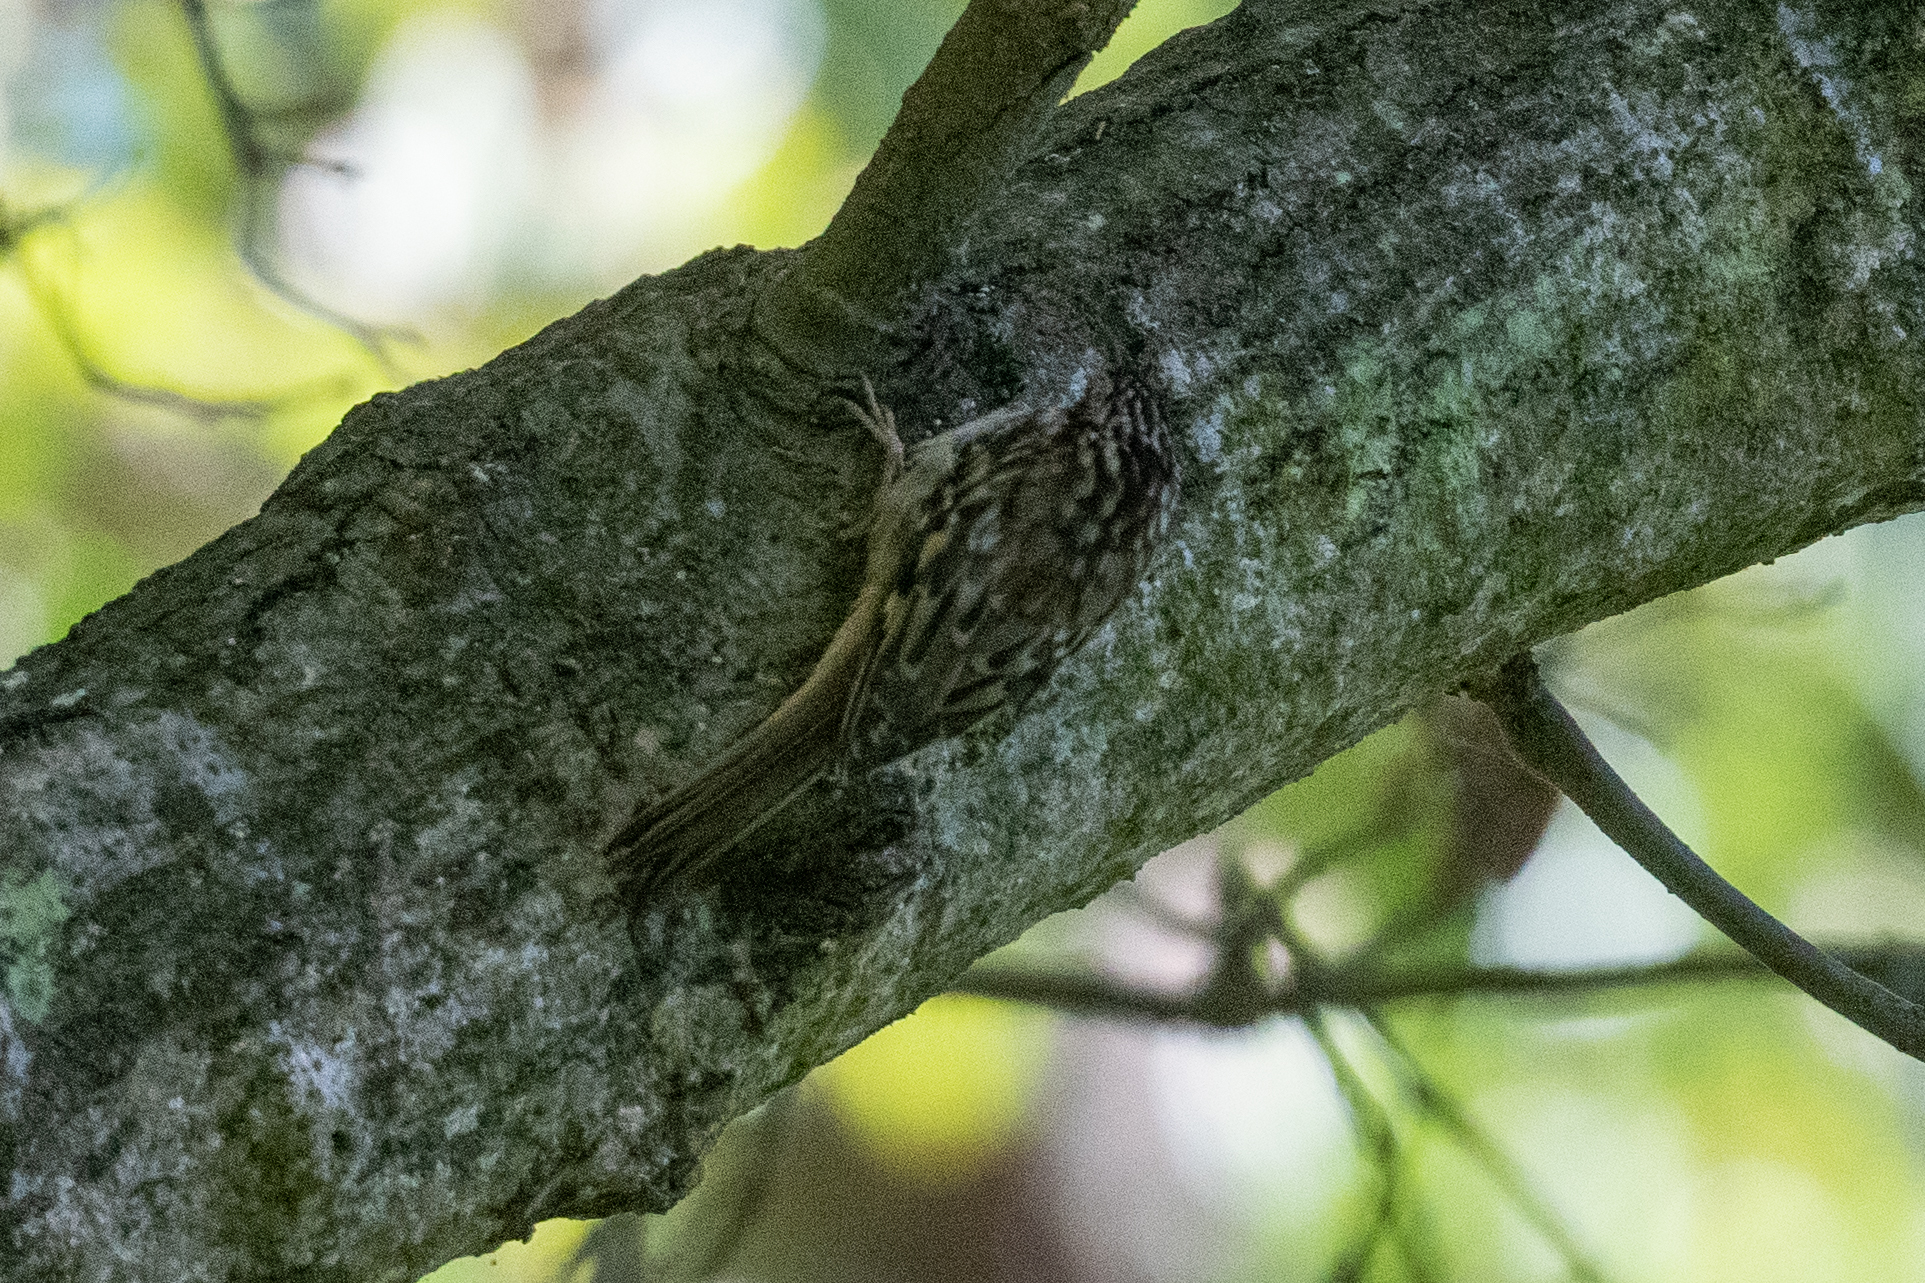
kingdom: Animalia
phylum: Chordata
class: Aves
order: Passeriformes
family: Certhiidae
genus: Certhia
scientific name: Certhia americana
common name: Brown creeper
